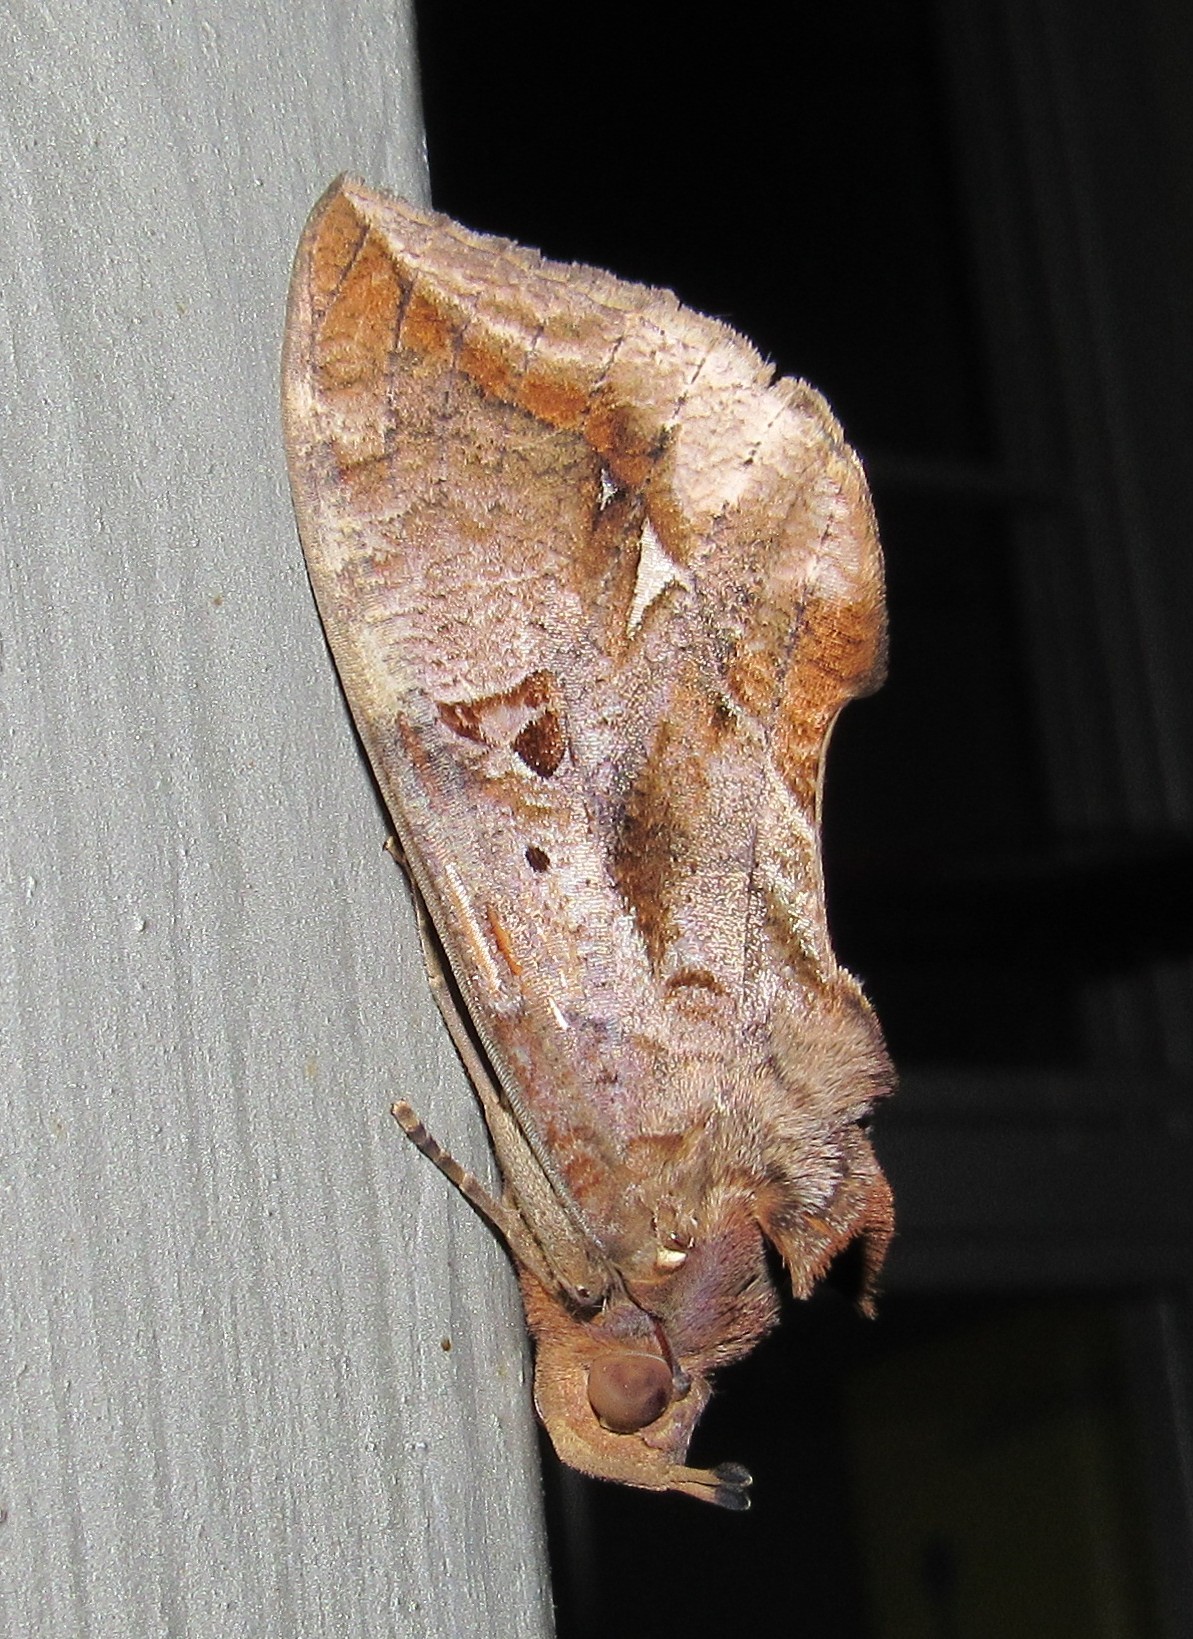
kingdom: Animalia
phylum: Arthropoda
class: Insecta
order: Lepidoptera
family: Erebidae
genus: Eudocima
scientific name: Eudocima procus
